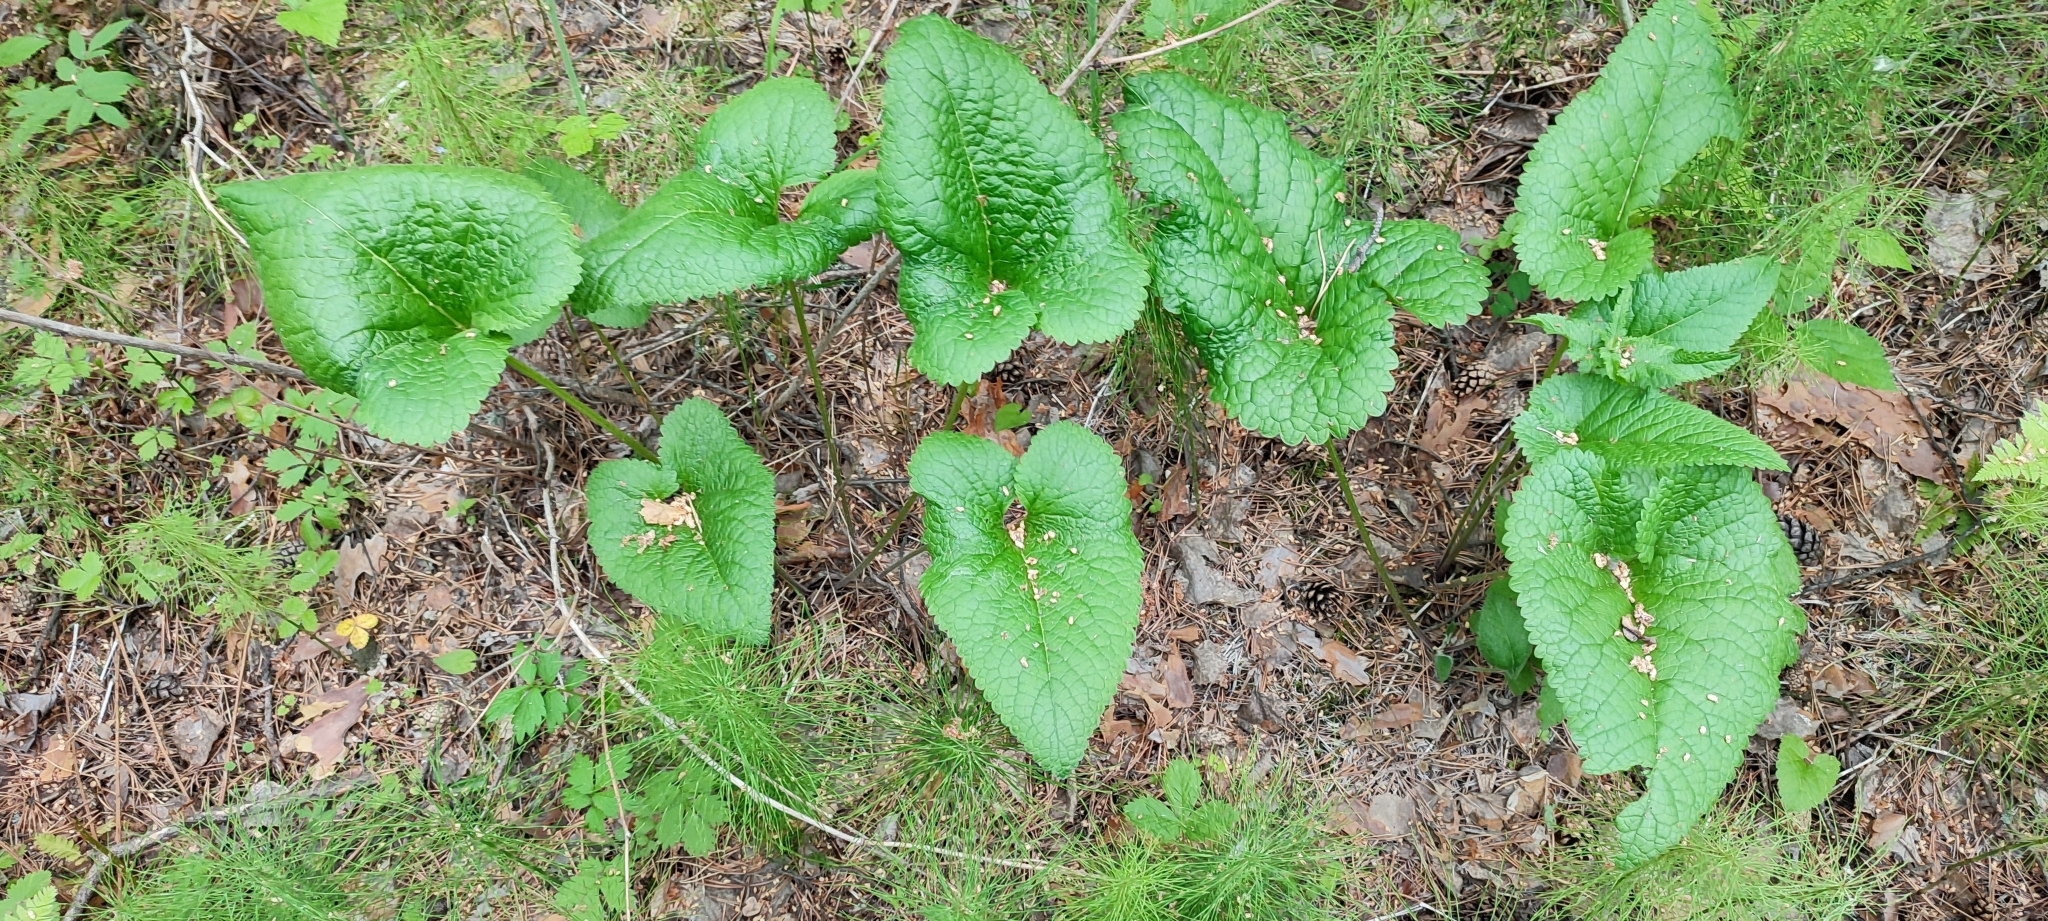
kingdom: Plantae
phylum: Tracheophyta
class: Magnoliopsida
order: Lamiales
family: Lamiaceae
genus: Phlomoides
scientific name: Phlomoides tuberosa
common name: Tuberous jerusalem sage
